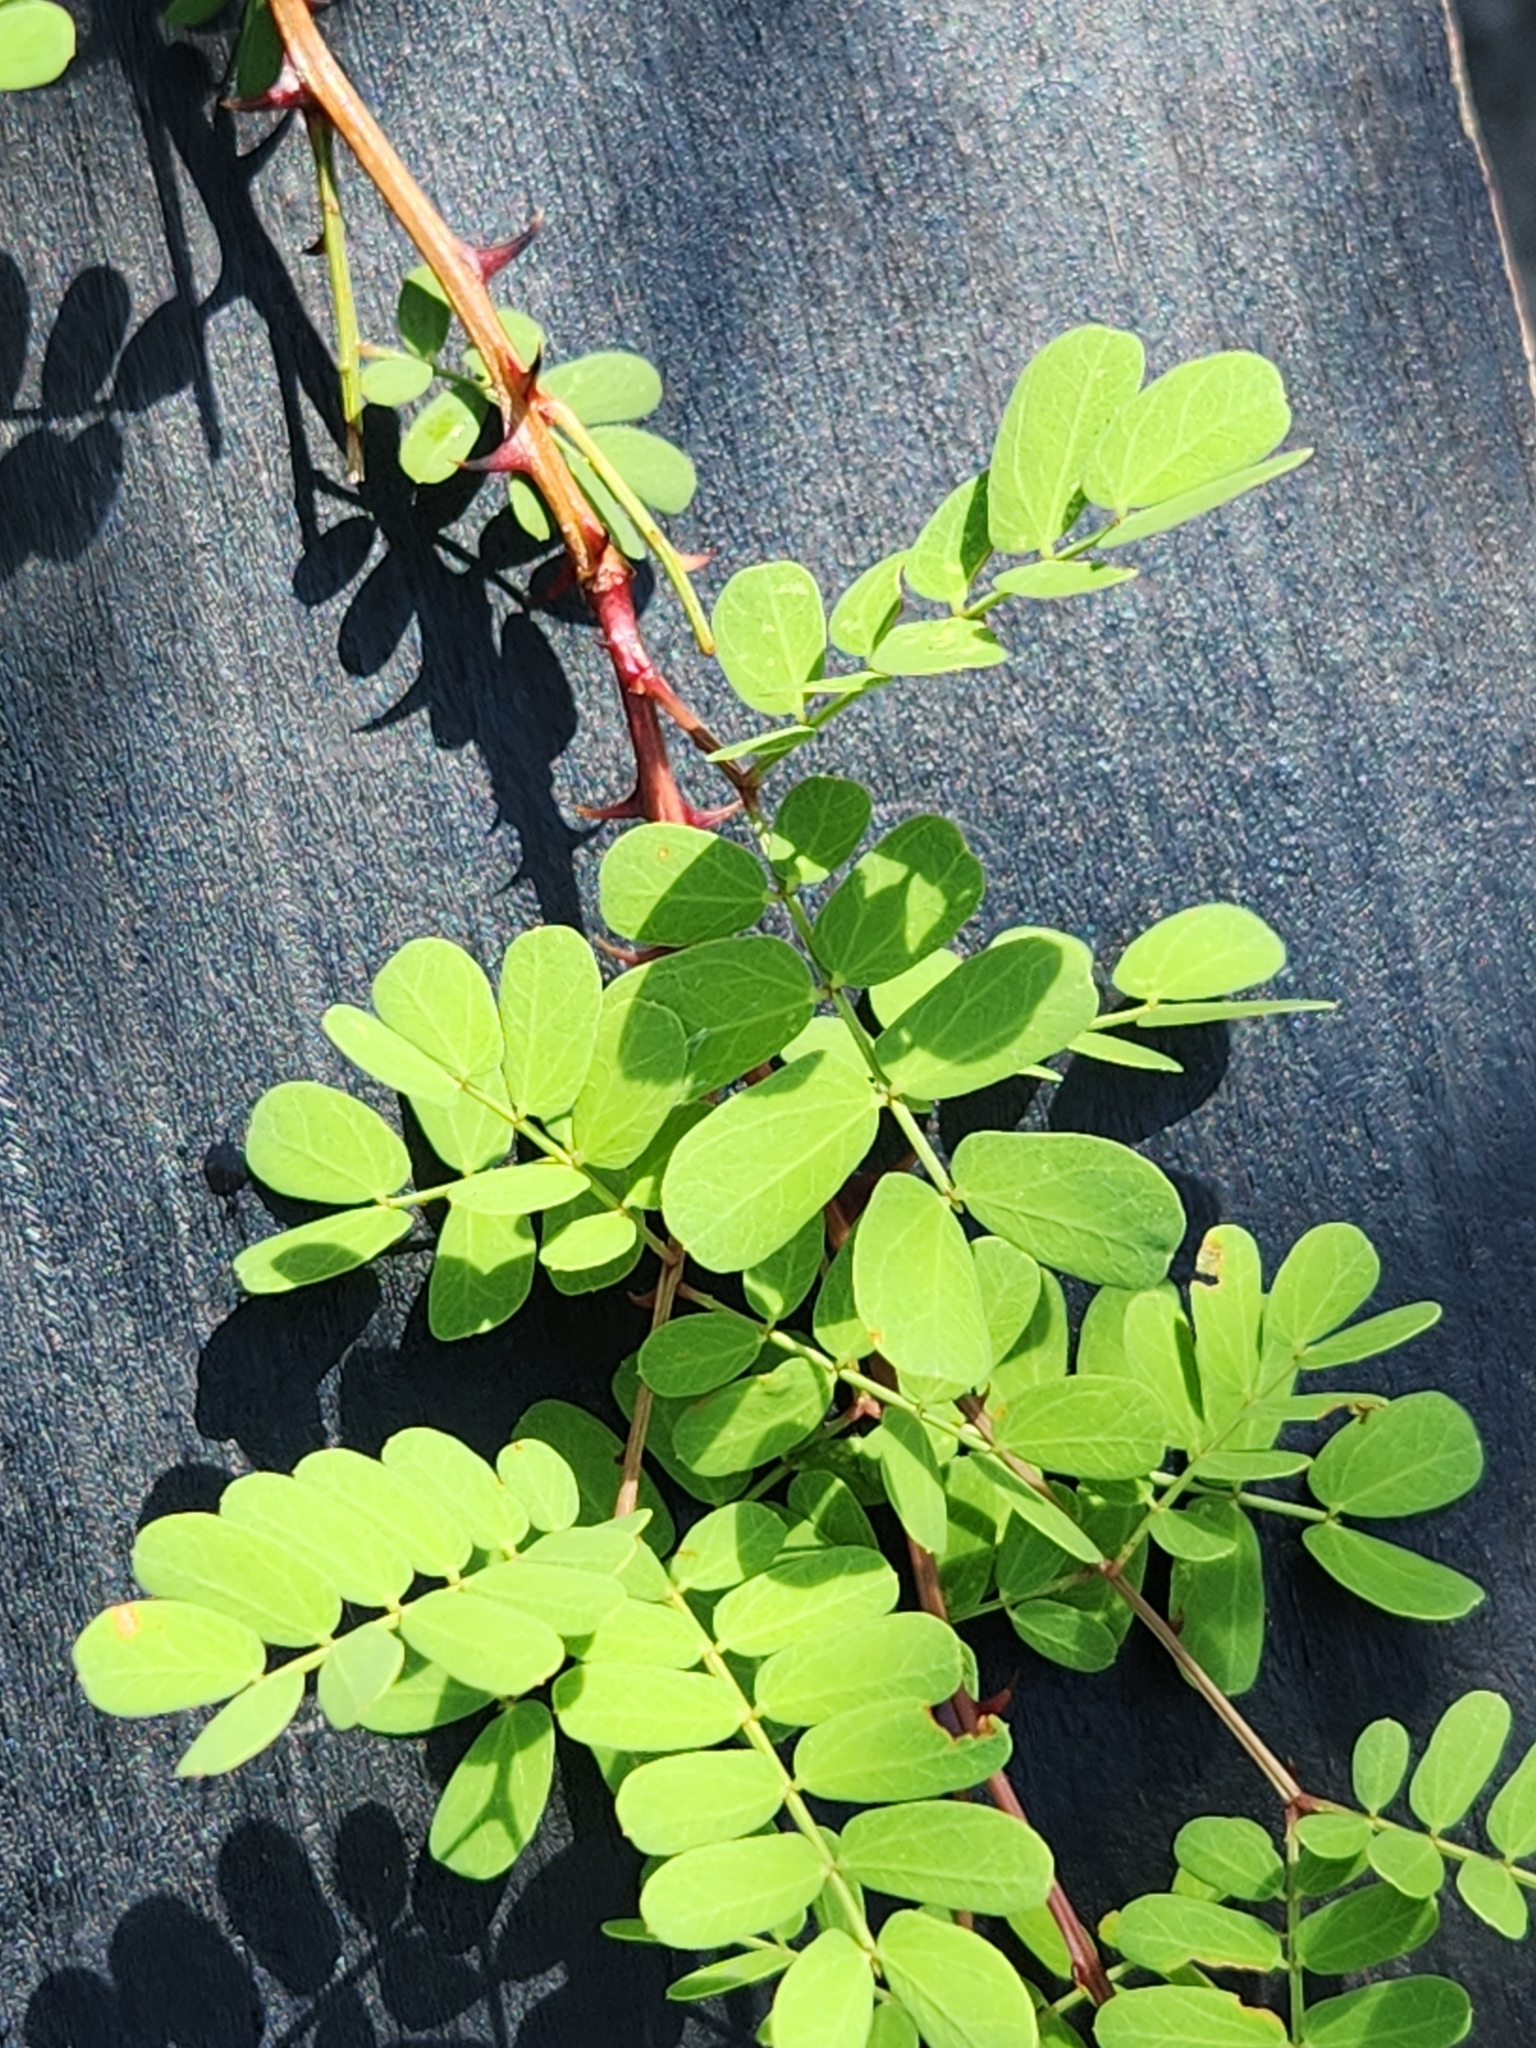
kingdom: Plantae
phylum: Tracheophyta
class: Magnoliopsida
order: Fabales
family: Fabaceae
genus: Senegalia
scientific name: Senegalia roemeriana
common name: Roemer's acacia
